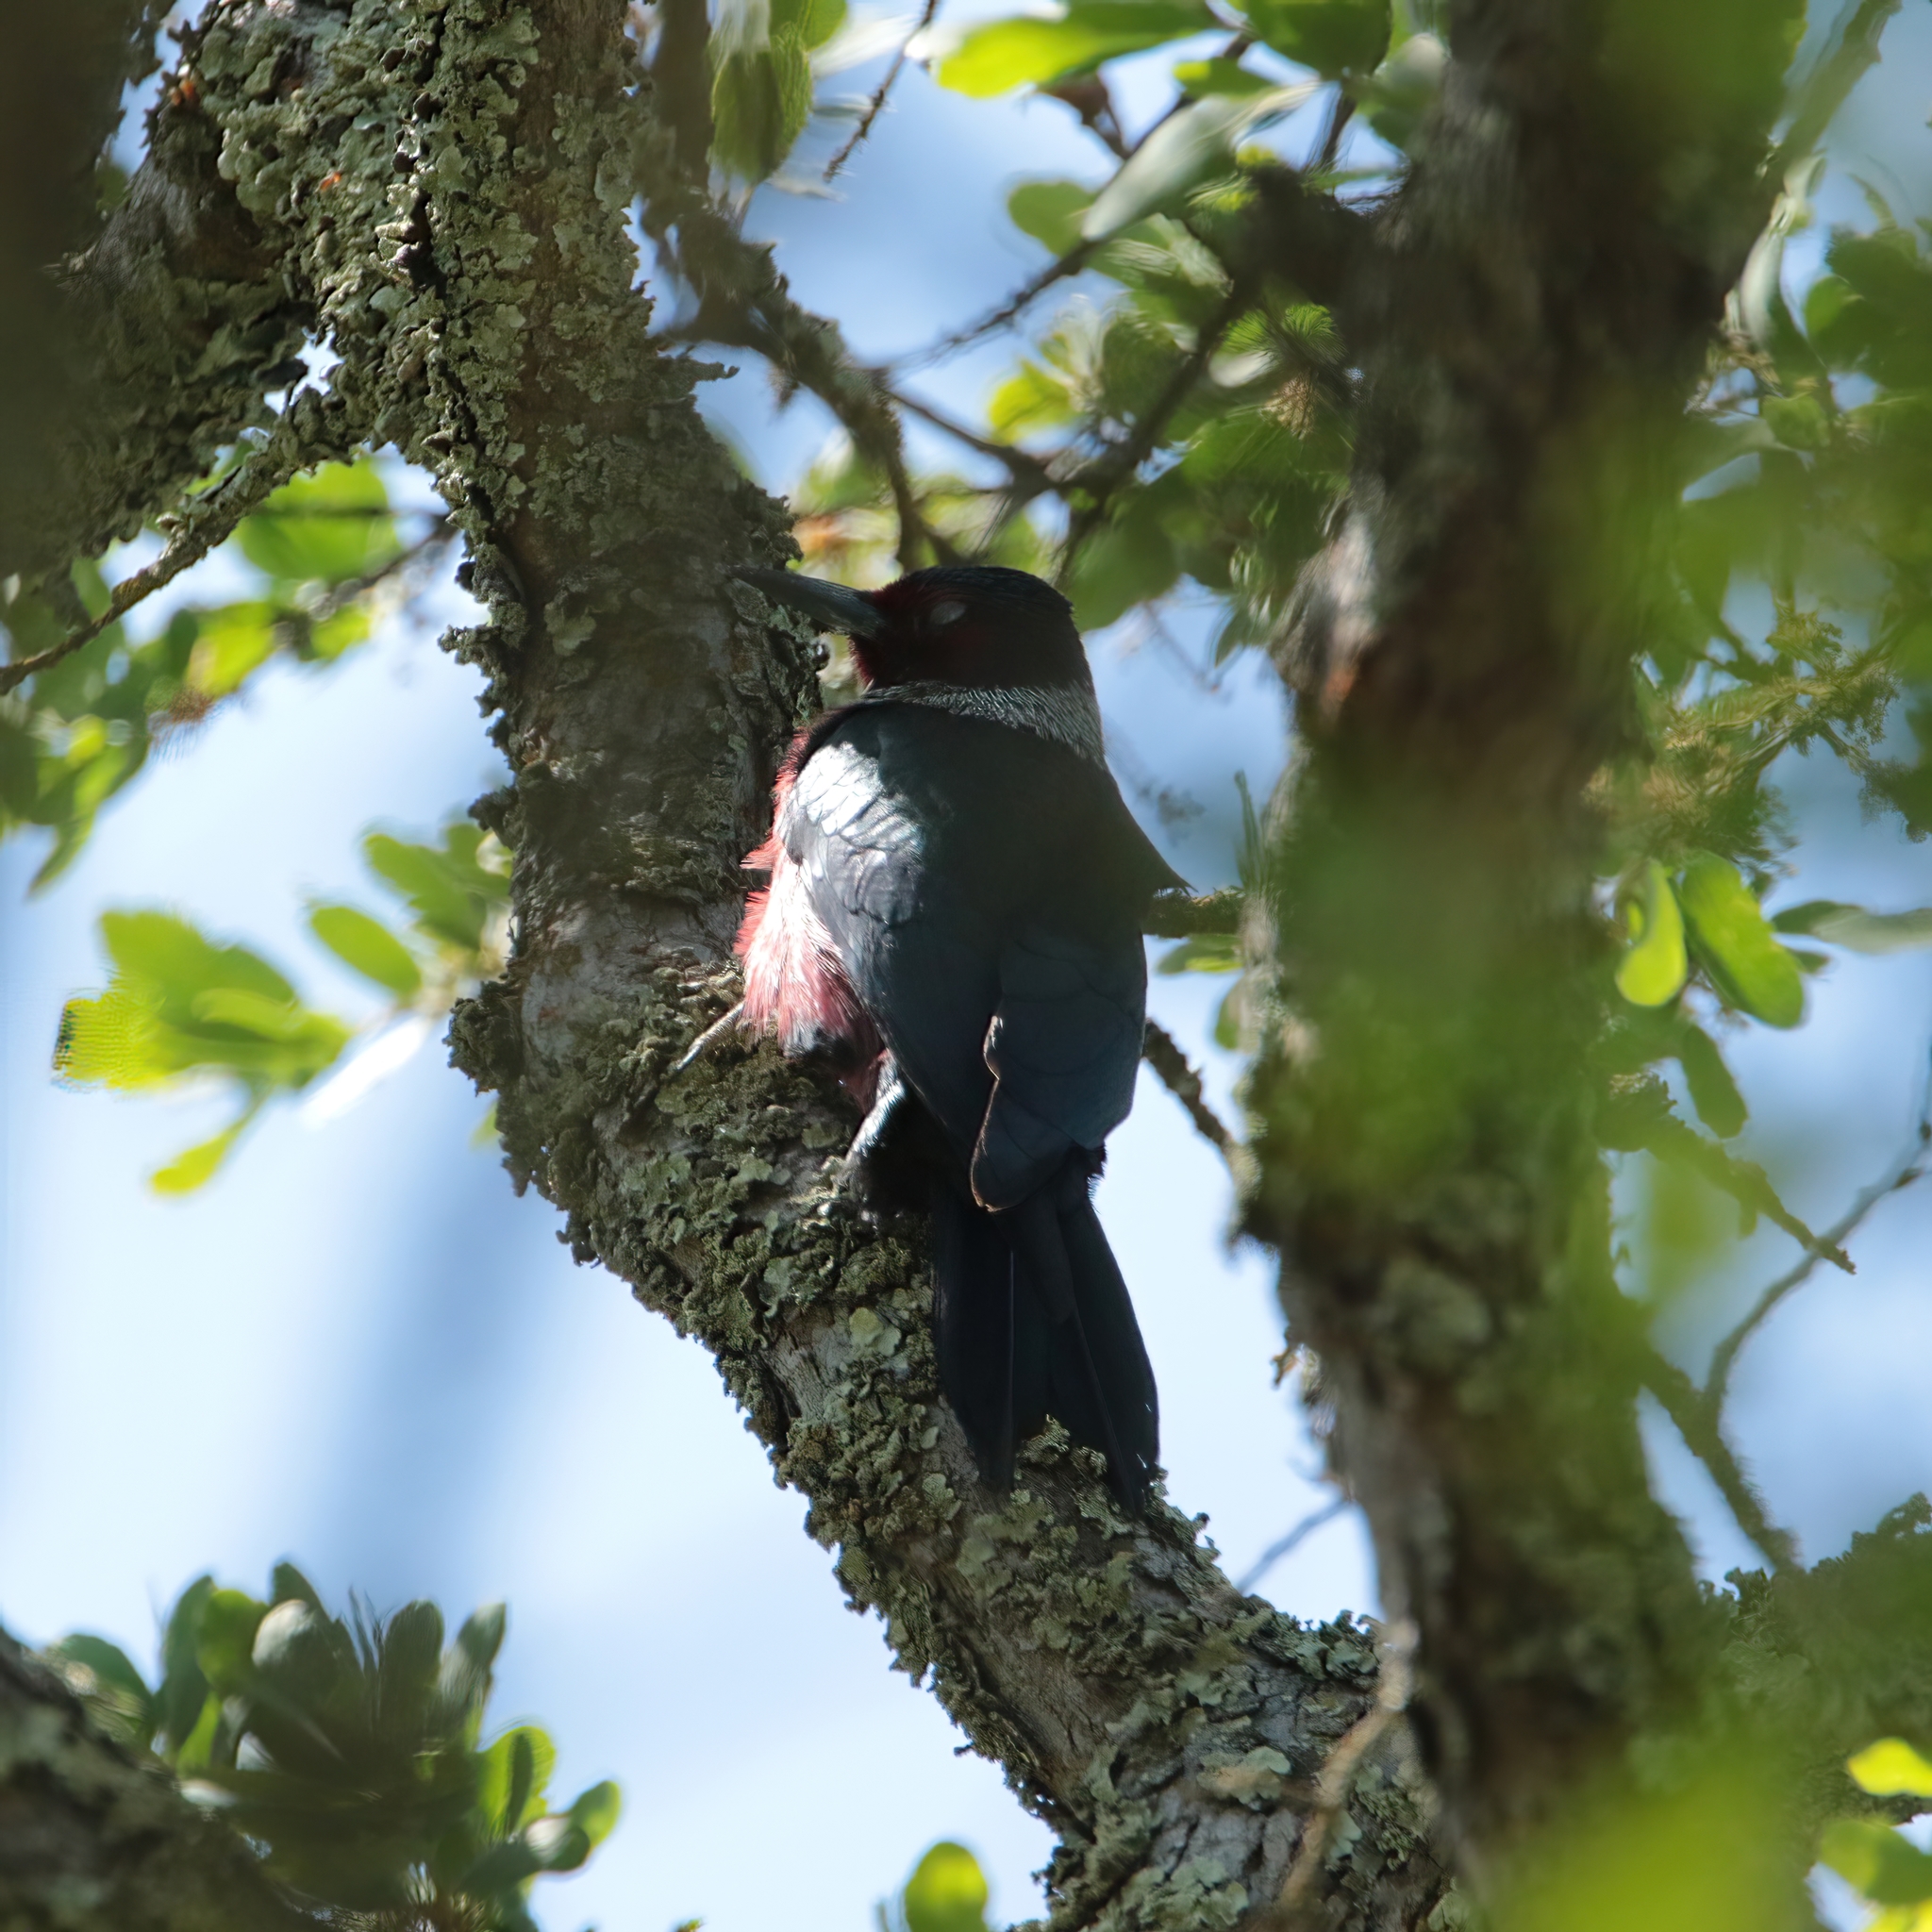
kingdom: Animalia
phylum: Chordata
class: Aves
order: Piciformes
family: Picidae
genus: Melanerpes
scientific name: Melanerpes lewis
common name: Lewis's woodpecker
